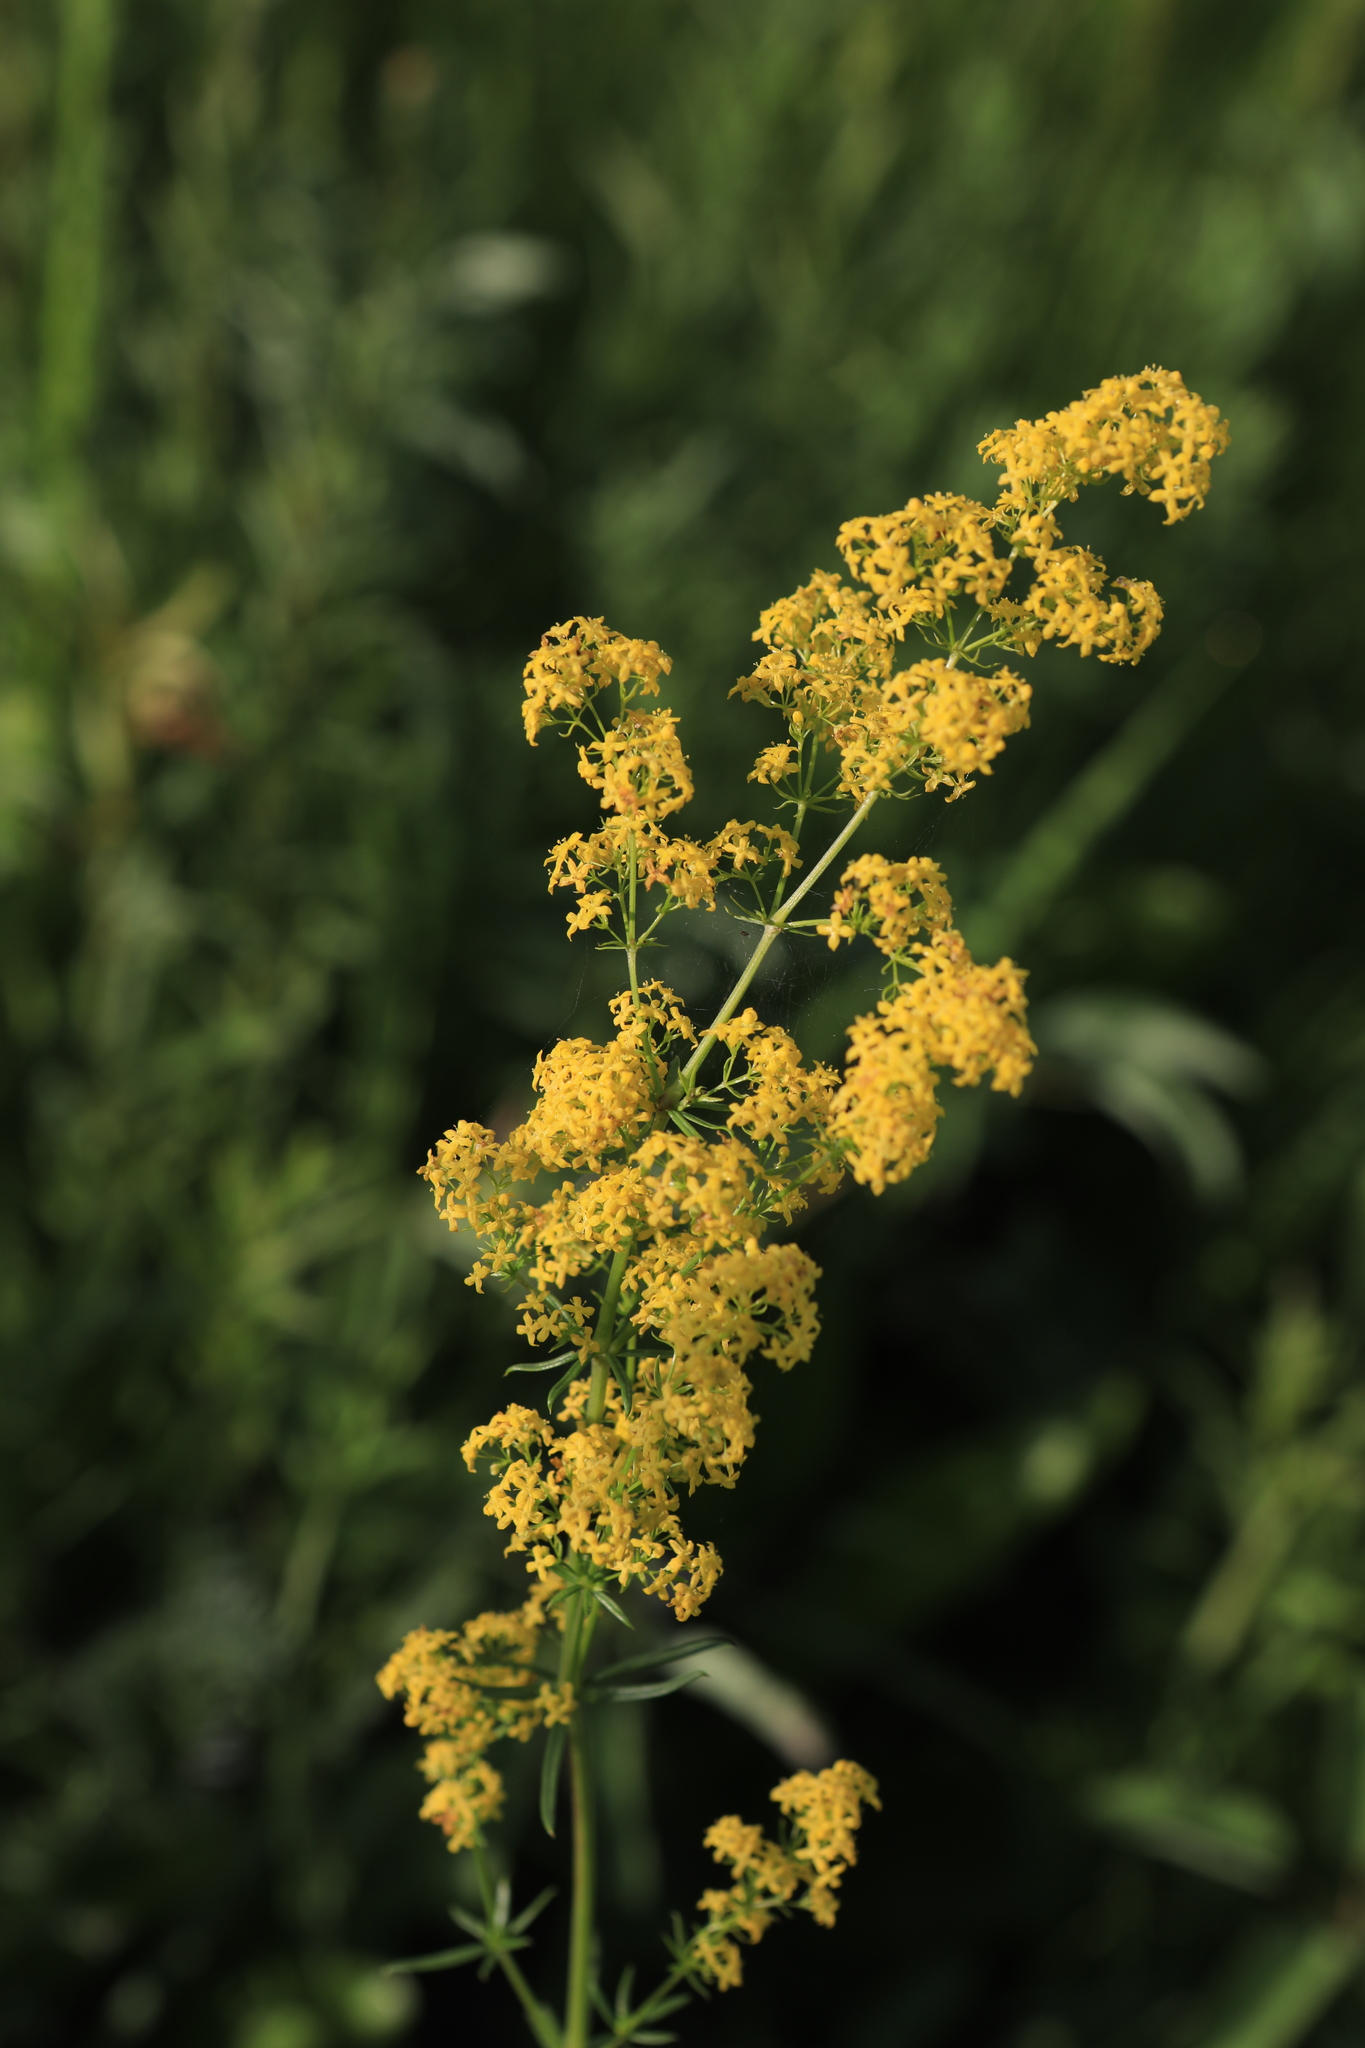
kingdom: Plantae
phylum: Tracheophyta
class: Magnoliopsida
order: Gentianales
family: Rubiaceae
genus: Galium
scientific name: Galium verum
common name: Lady's bedstraw
